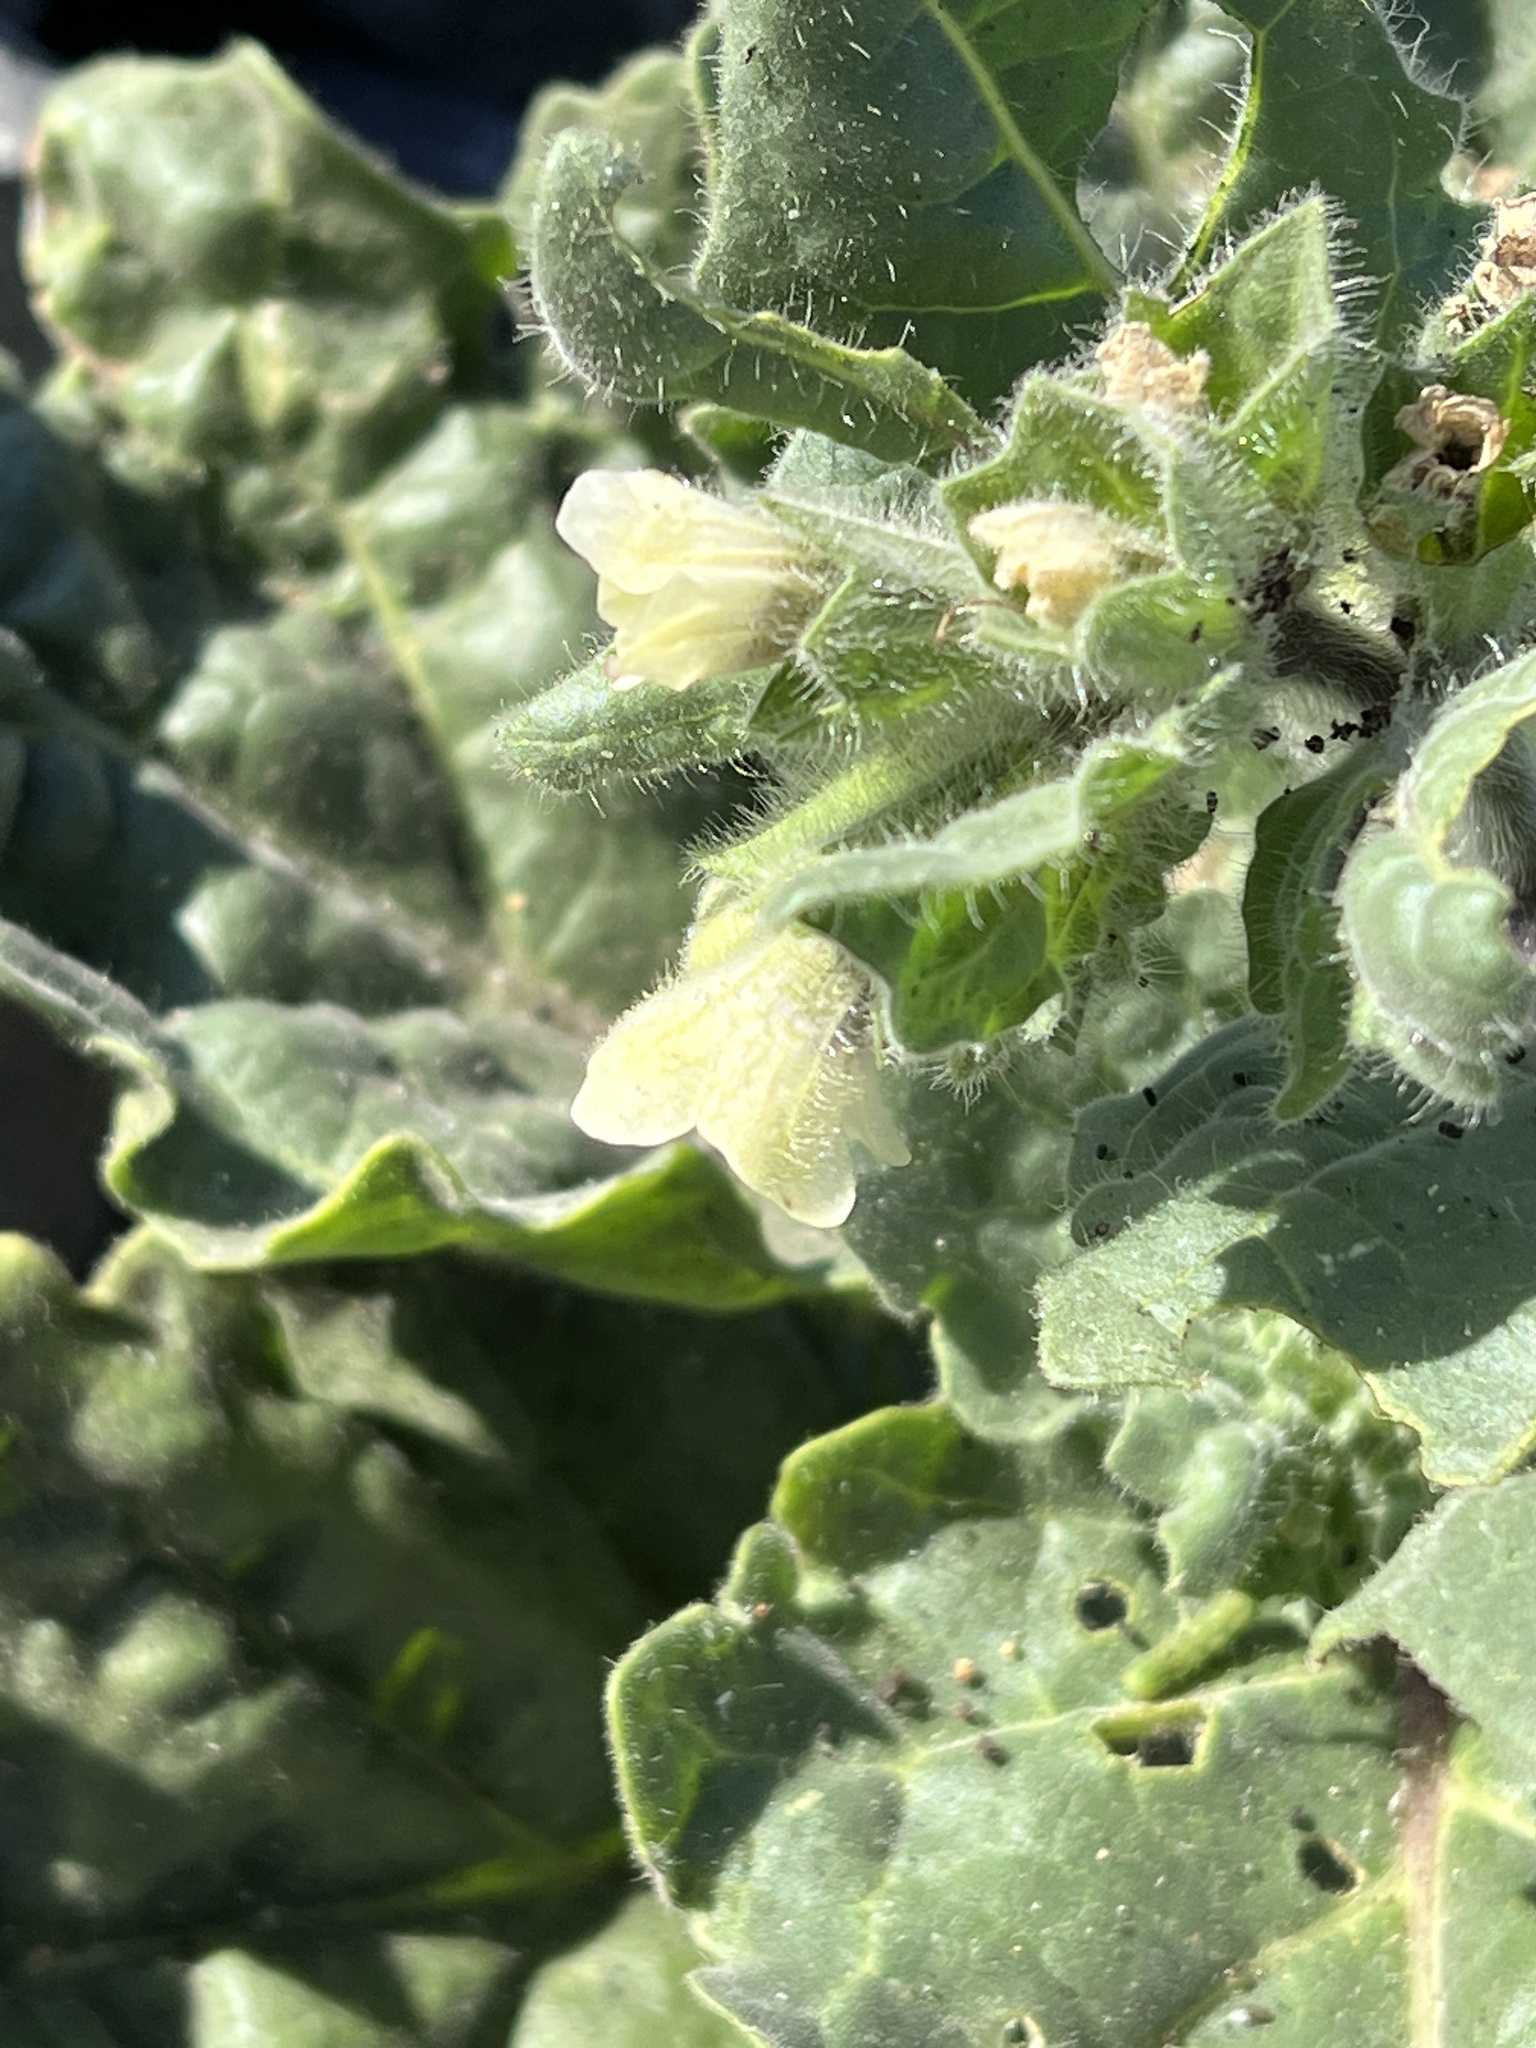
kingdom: Plantae
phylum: Tracheophyta
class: Magnoliopsida
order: Solanales
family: Solanaceae
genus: Hyoscyamus
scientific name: Hyoscyamus albus
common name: White henbane
